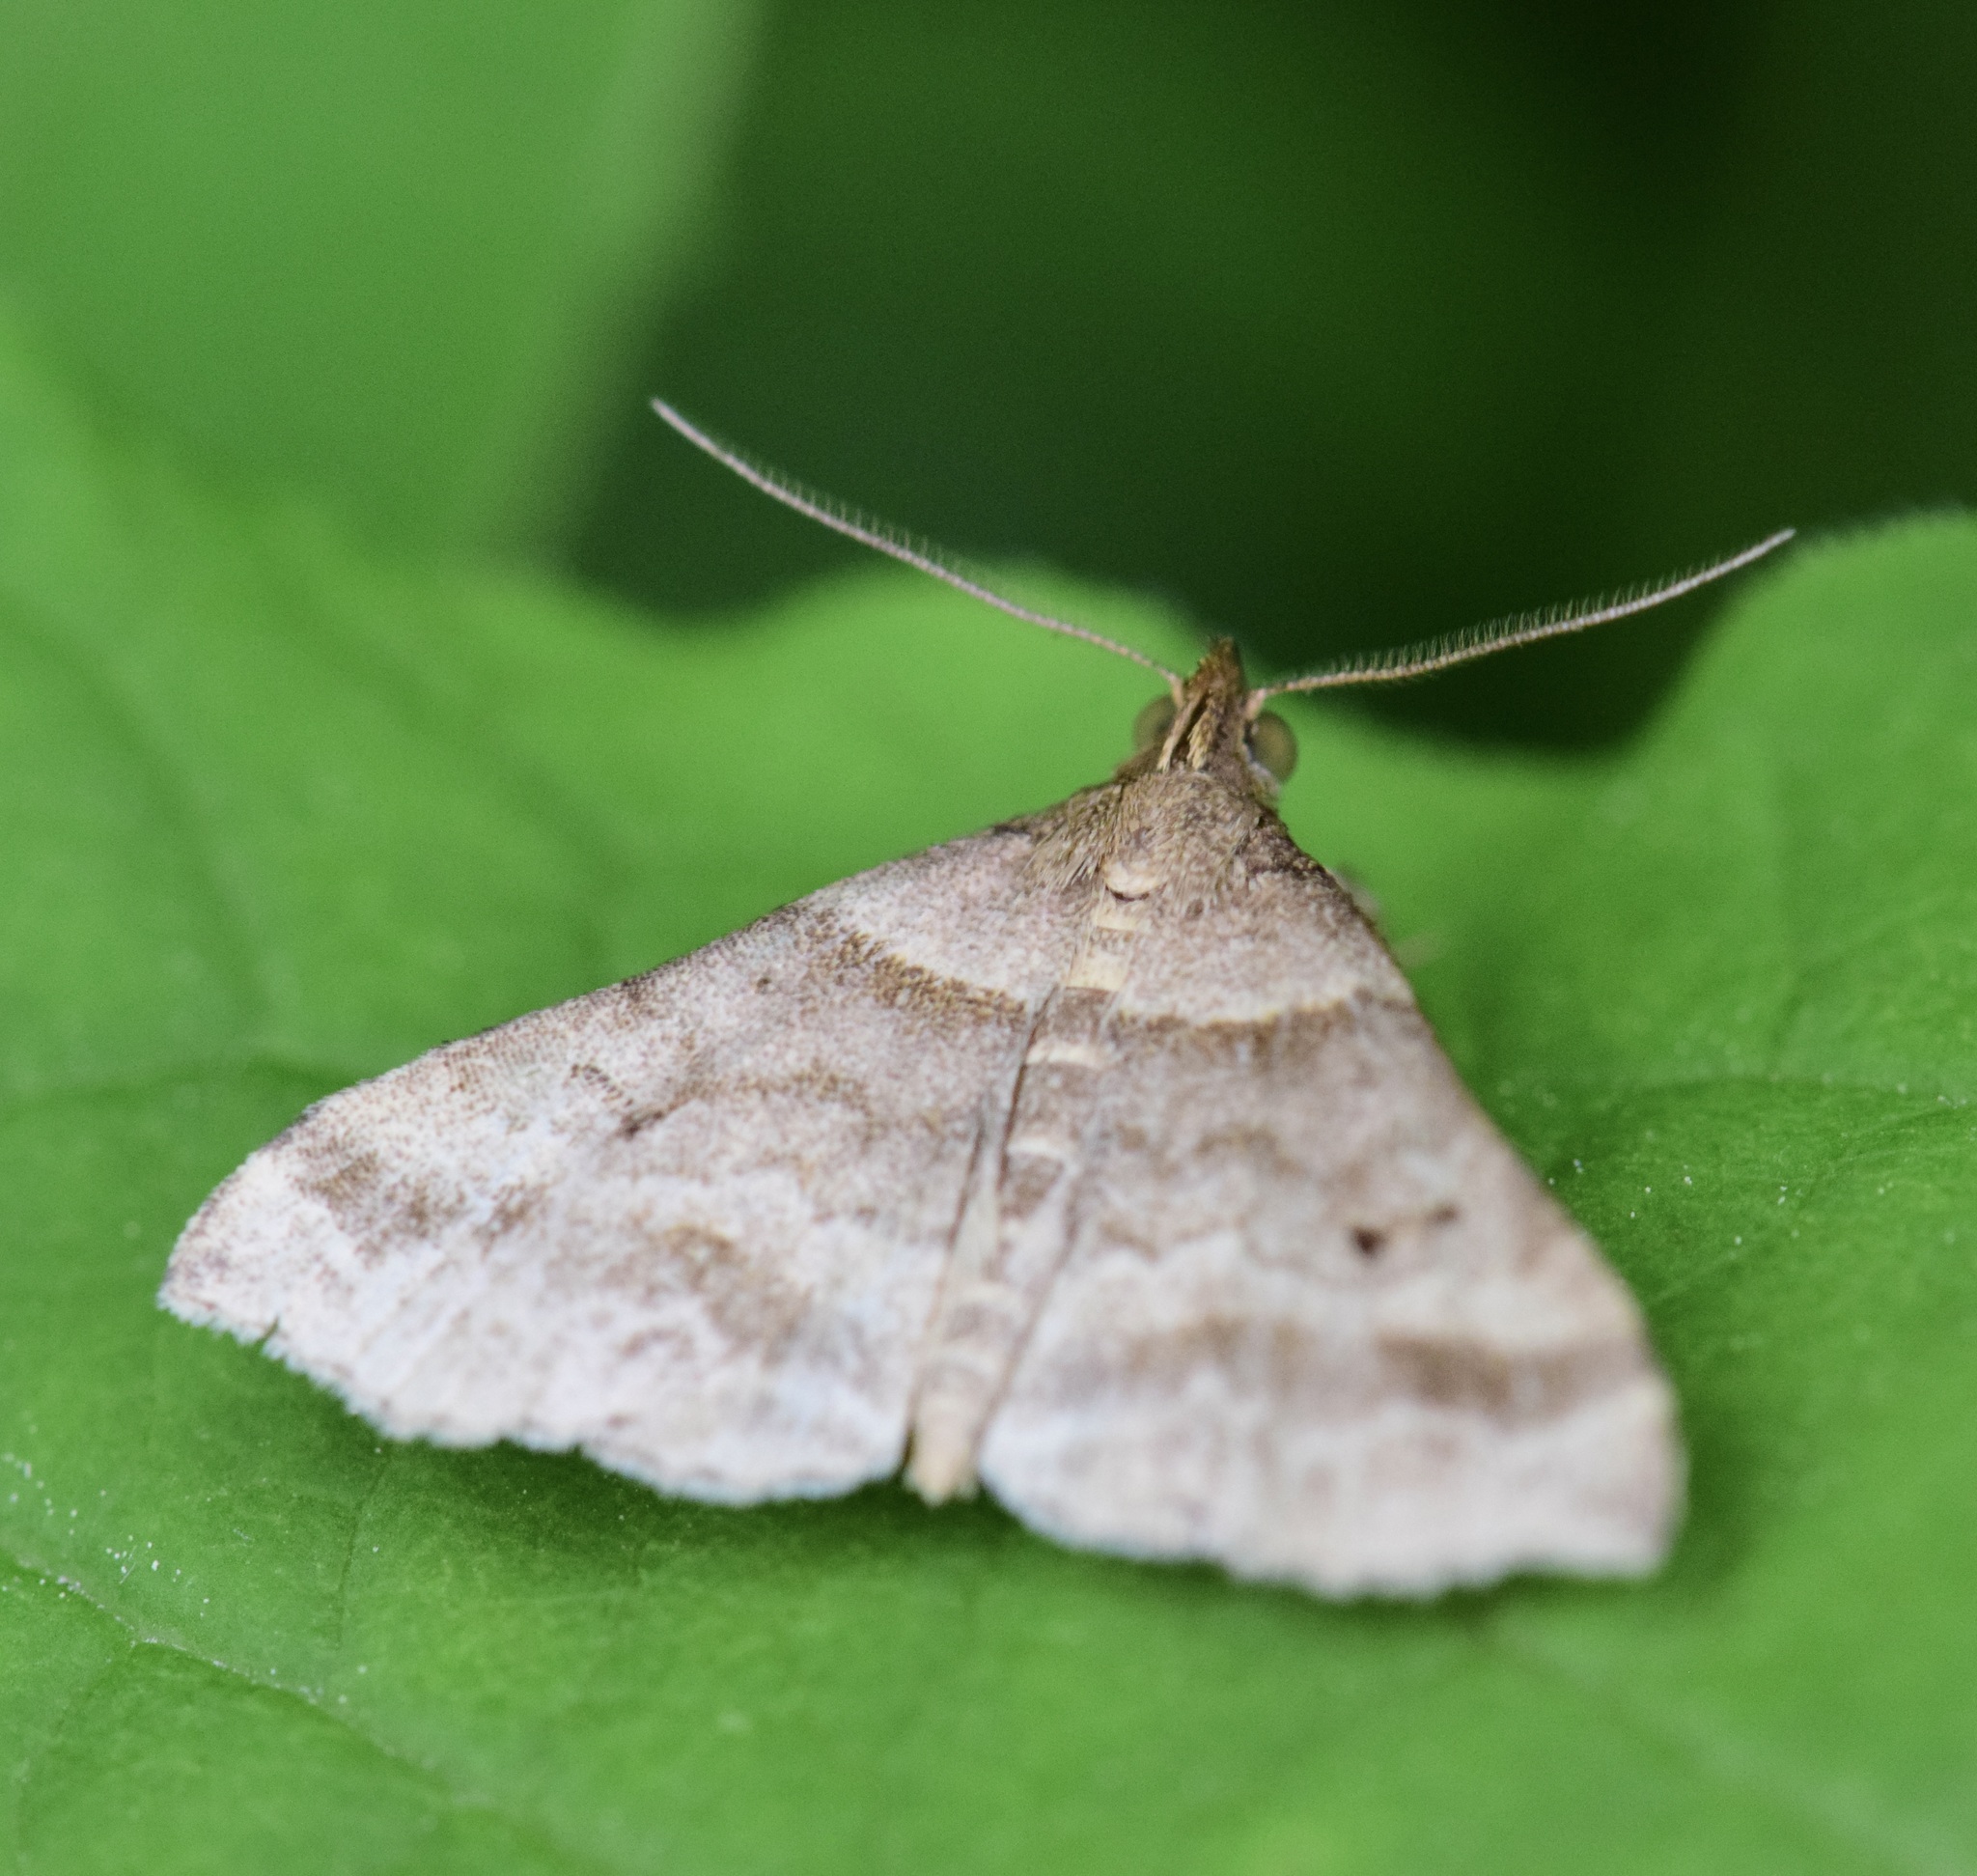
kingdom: Animalia
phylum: Arthropoda
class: Insecta
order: Lepidoptera
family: Erebidae
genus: Phaeolita
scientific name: Phaeolita pyramusalis
